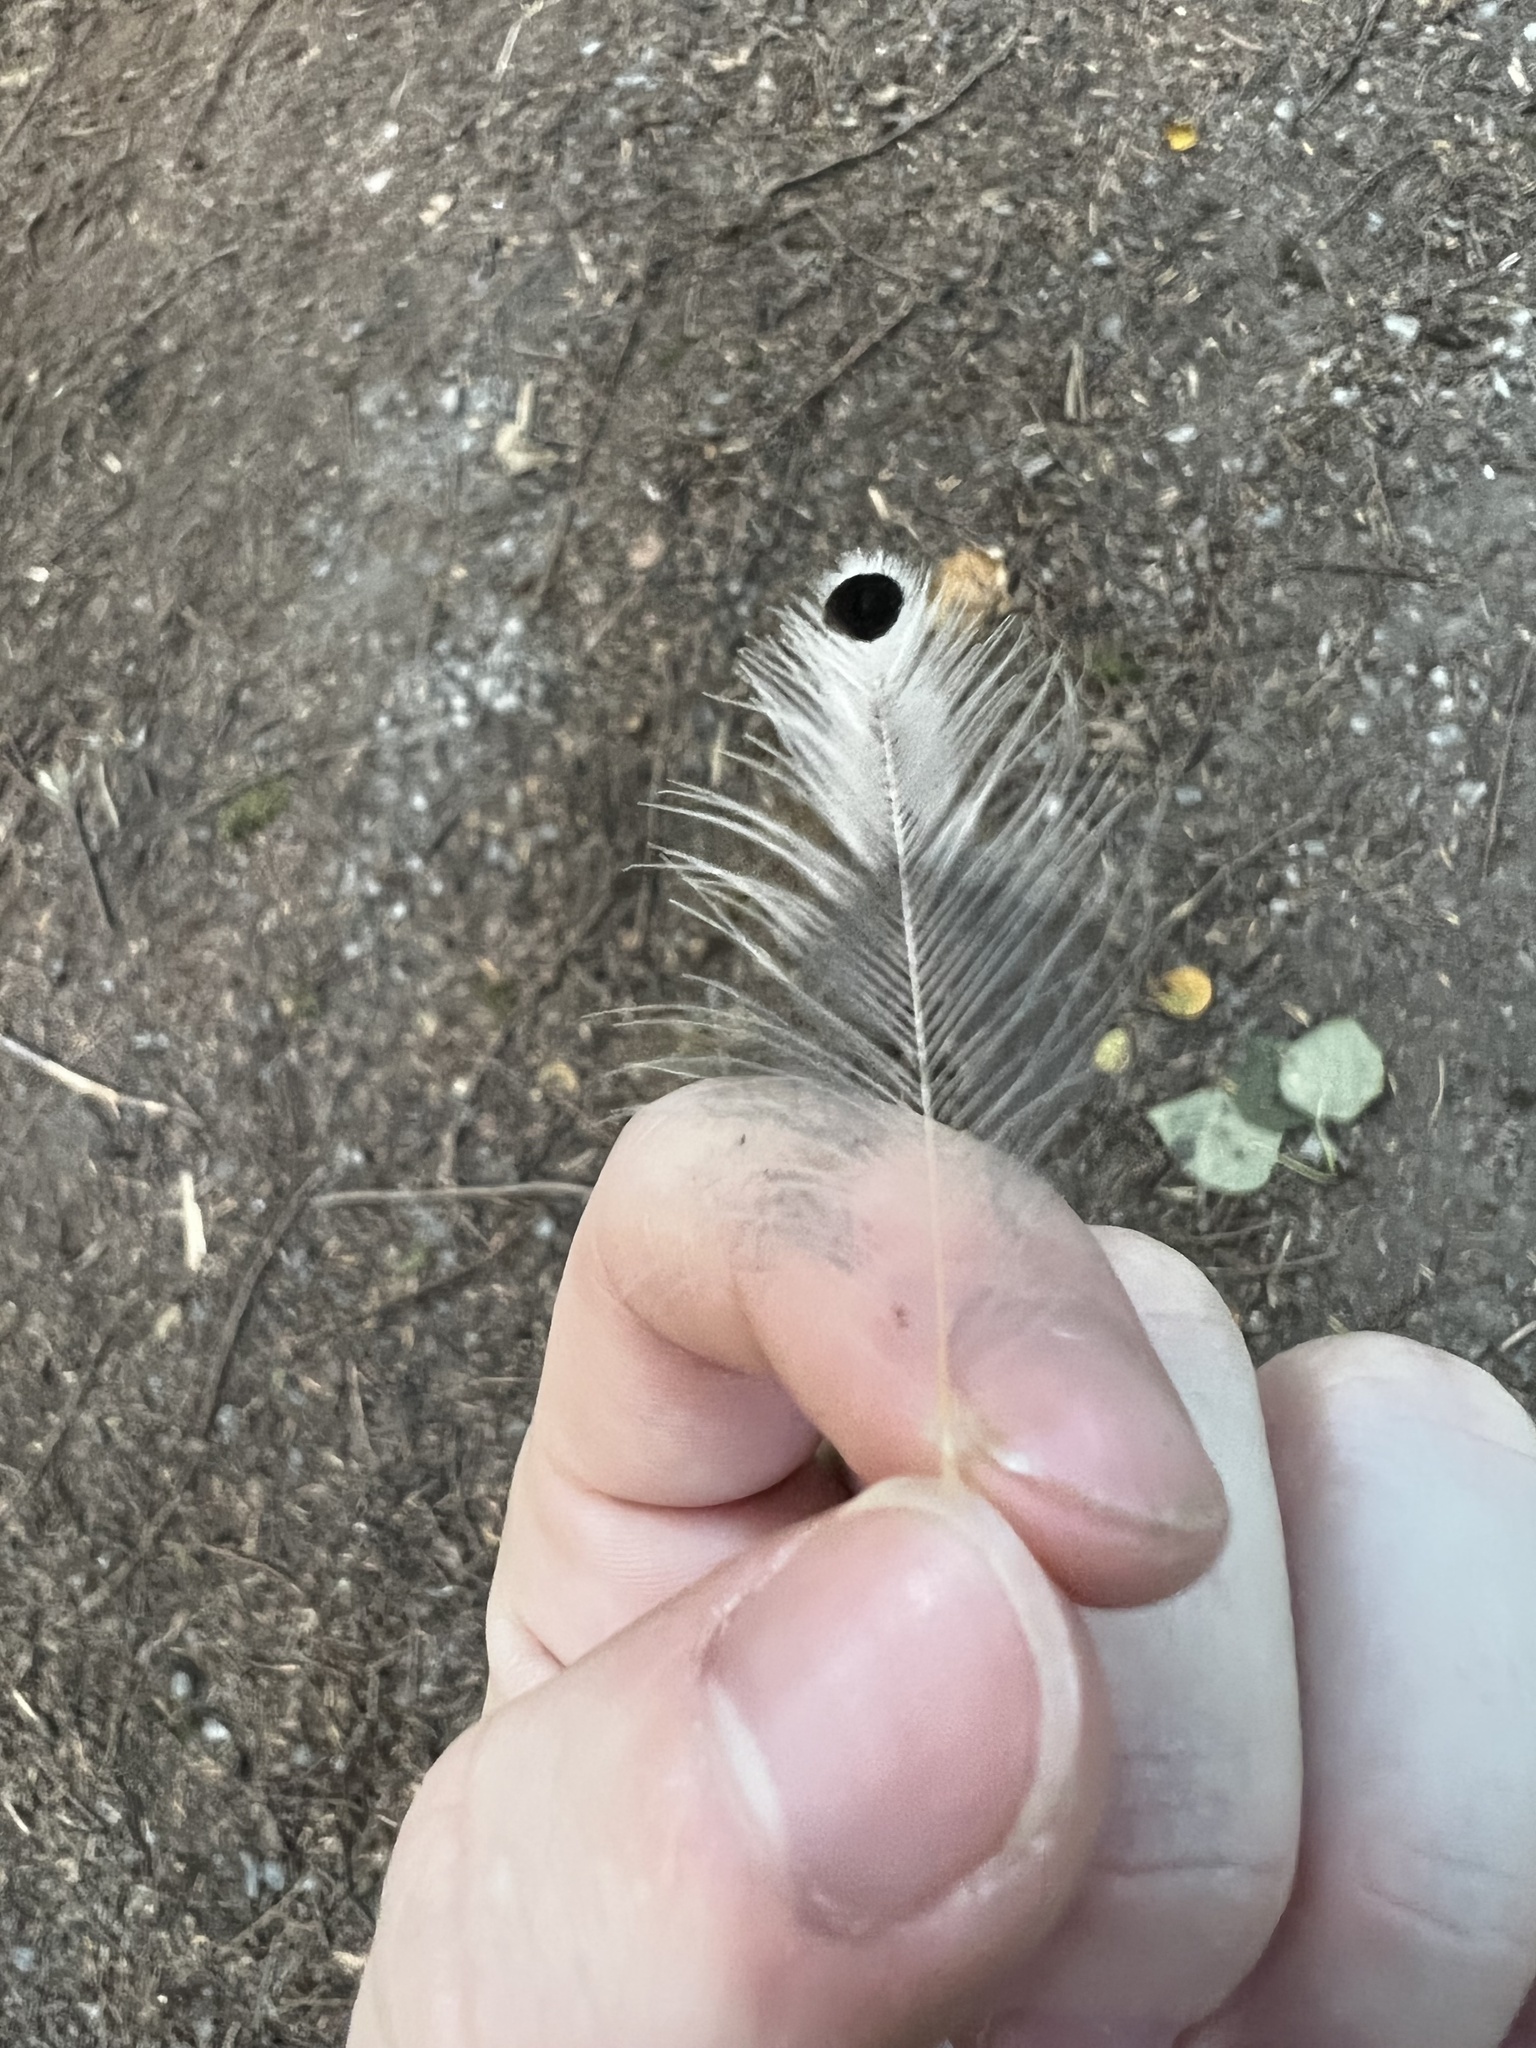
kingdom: Animalia
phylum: Chordata
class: Aves
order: Piciformes
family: Picidae
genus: Colaptes
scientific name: Colaptes auratus
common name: Northern flicker
